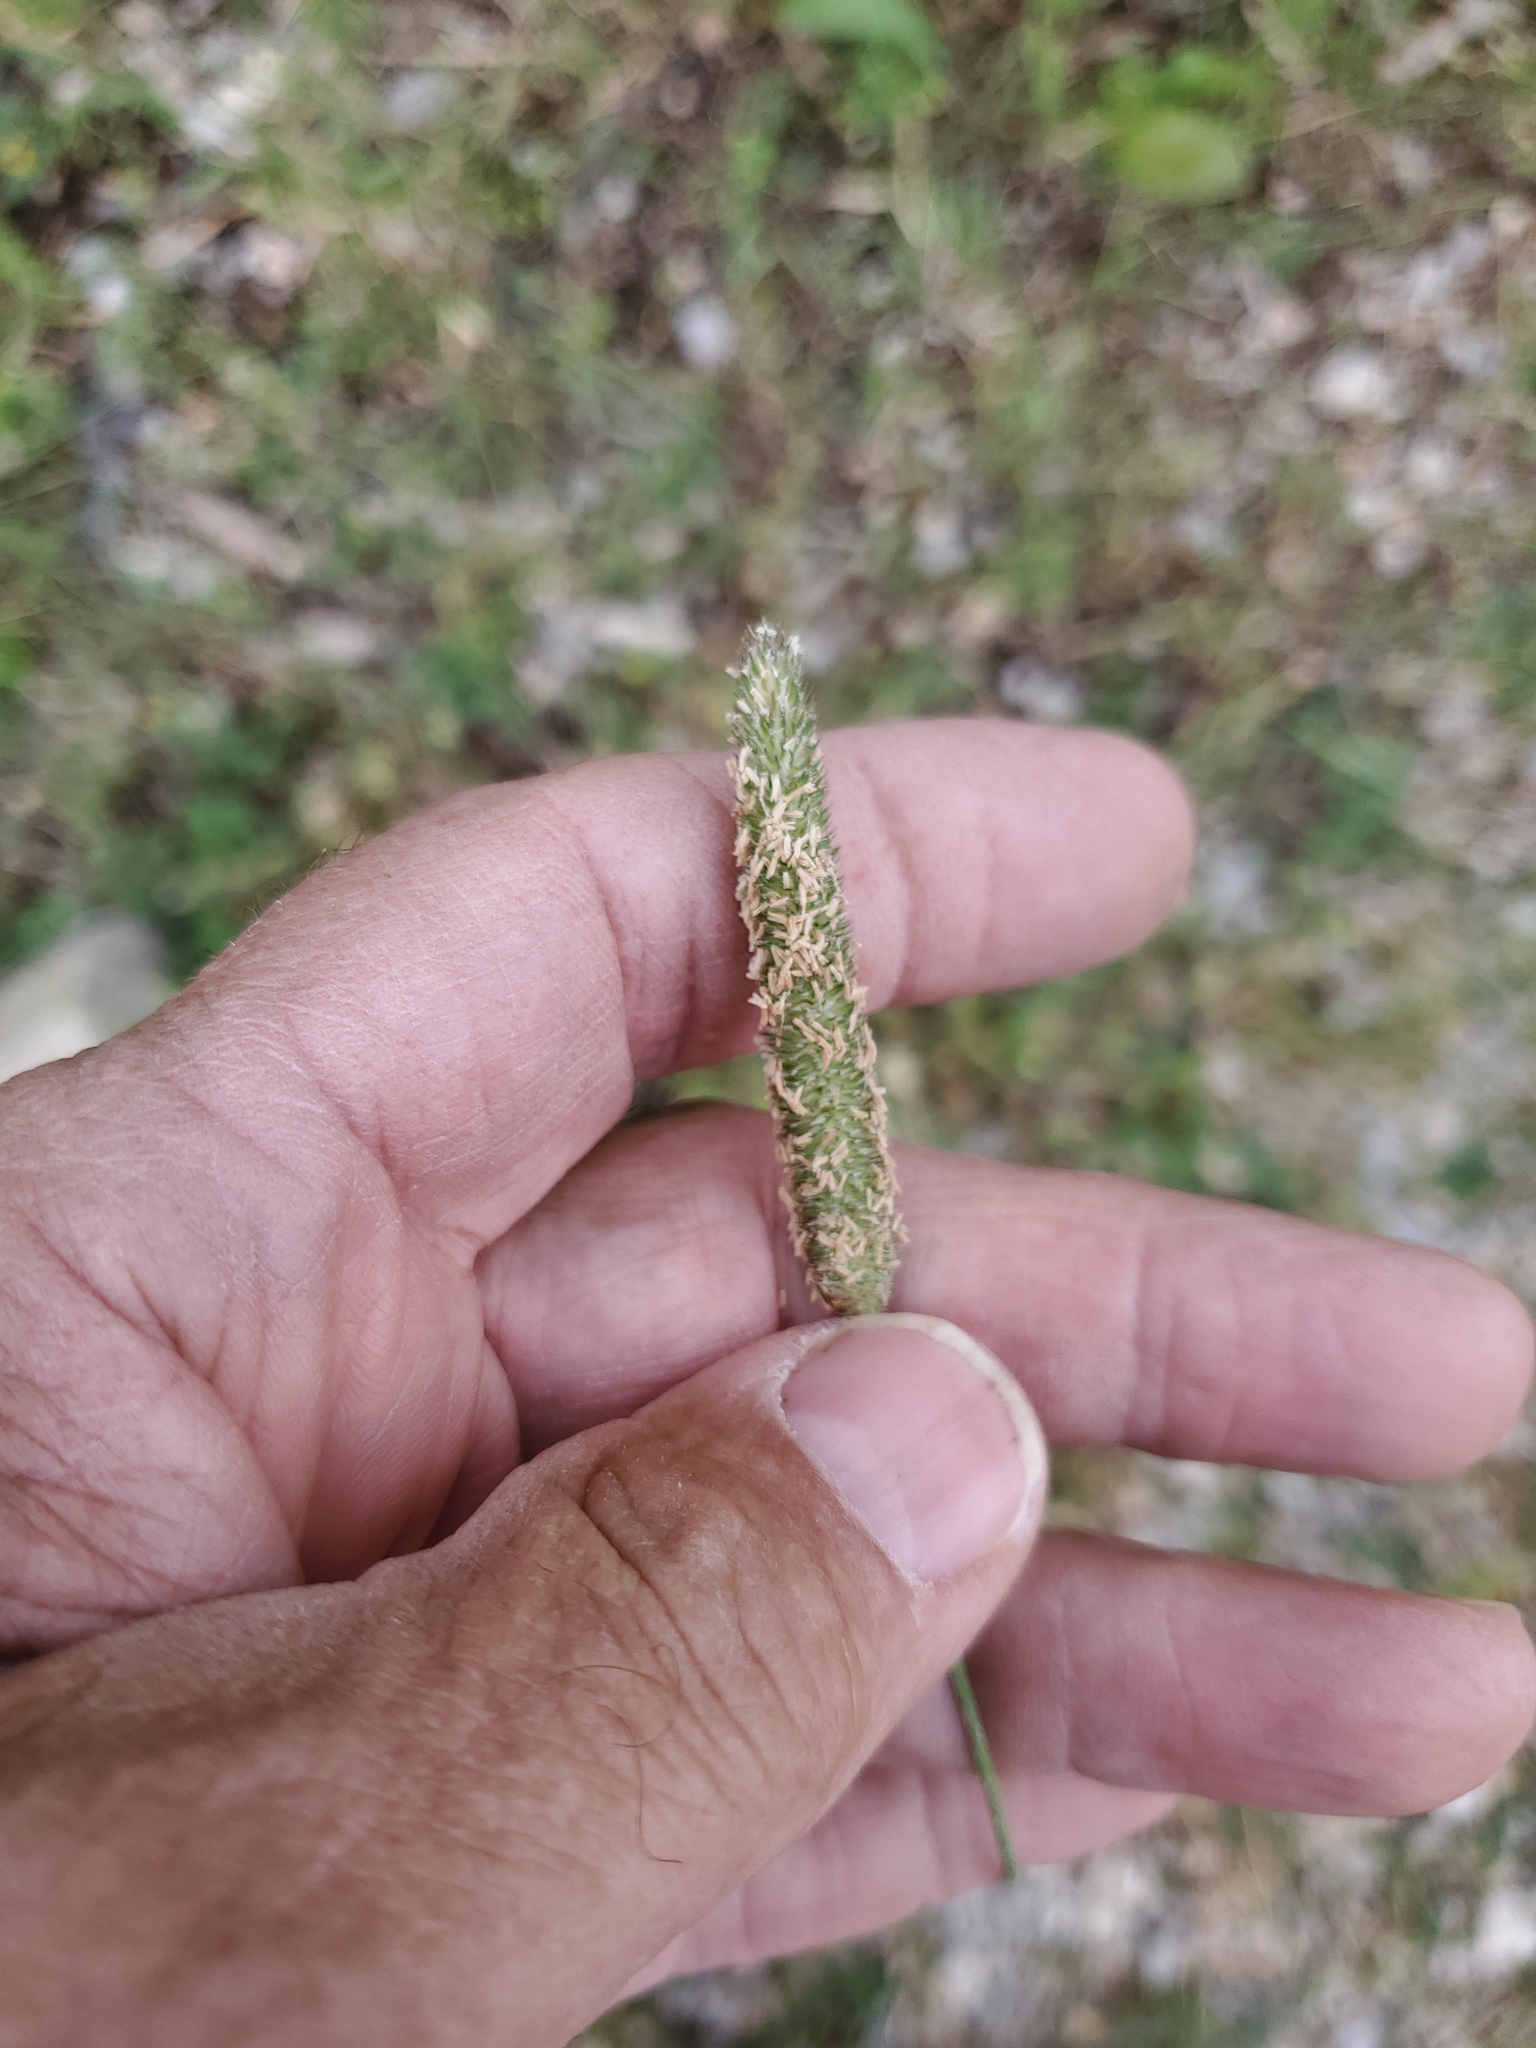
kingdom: Plantae
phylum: Tracheophyta
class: Liliopsida
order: Poales
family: Poaceae
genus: Phleum
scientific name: Phleum pratense
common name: Timothy grass
